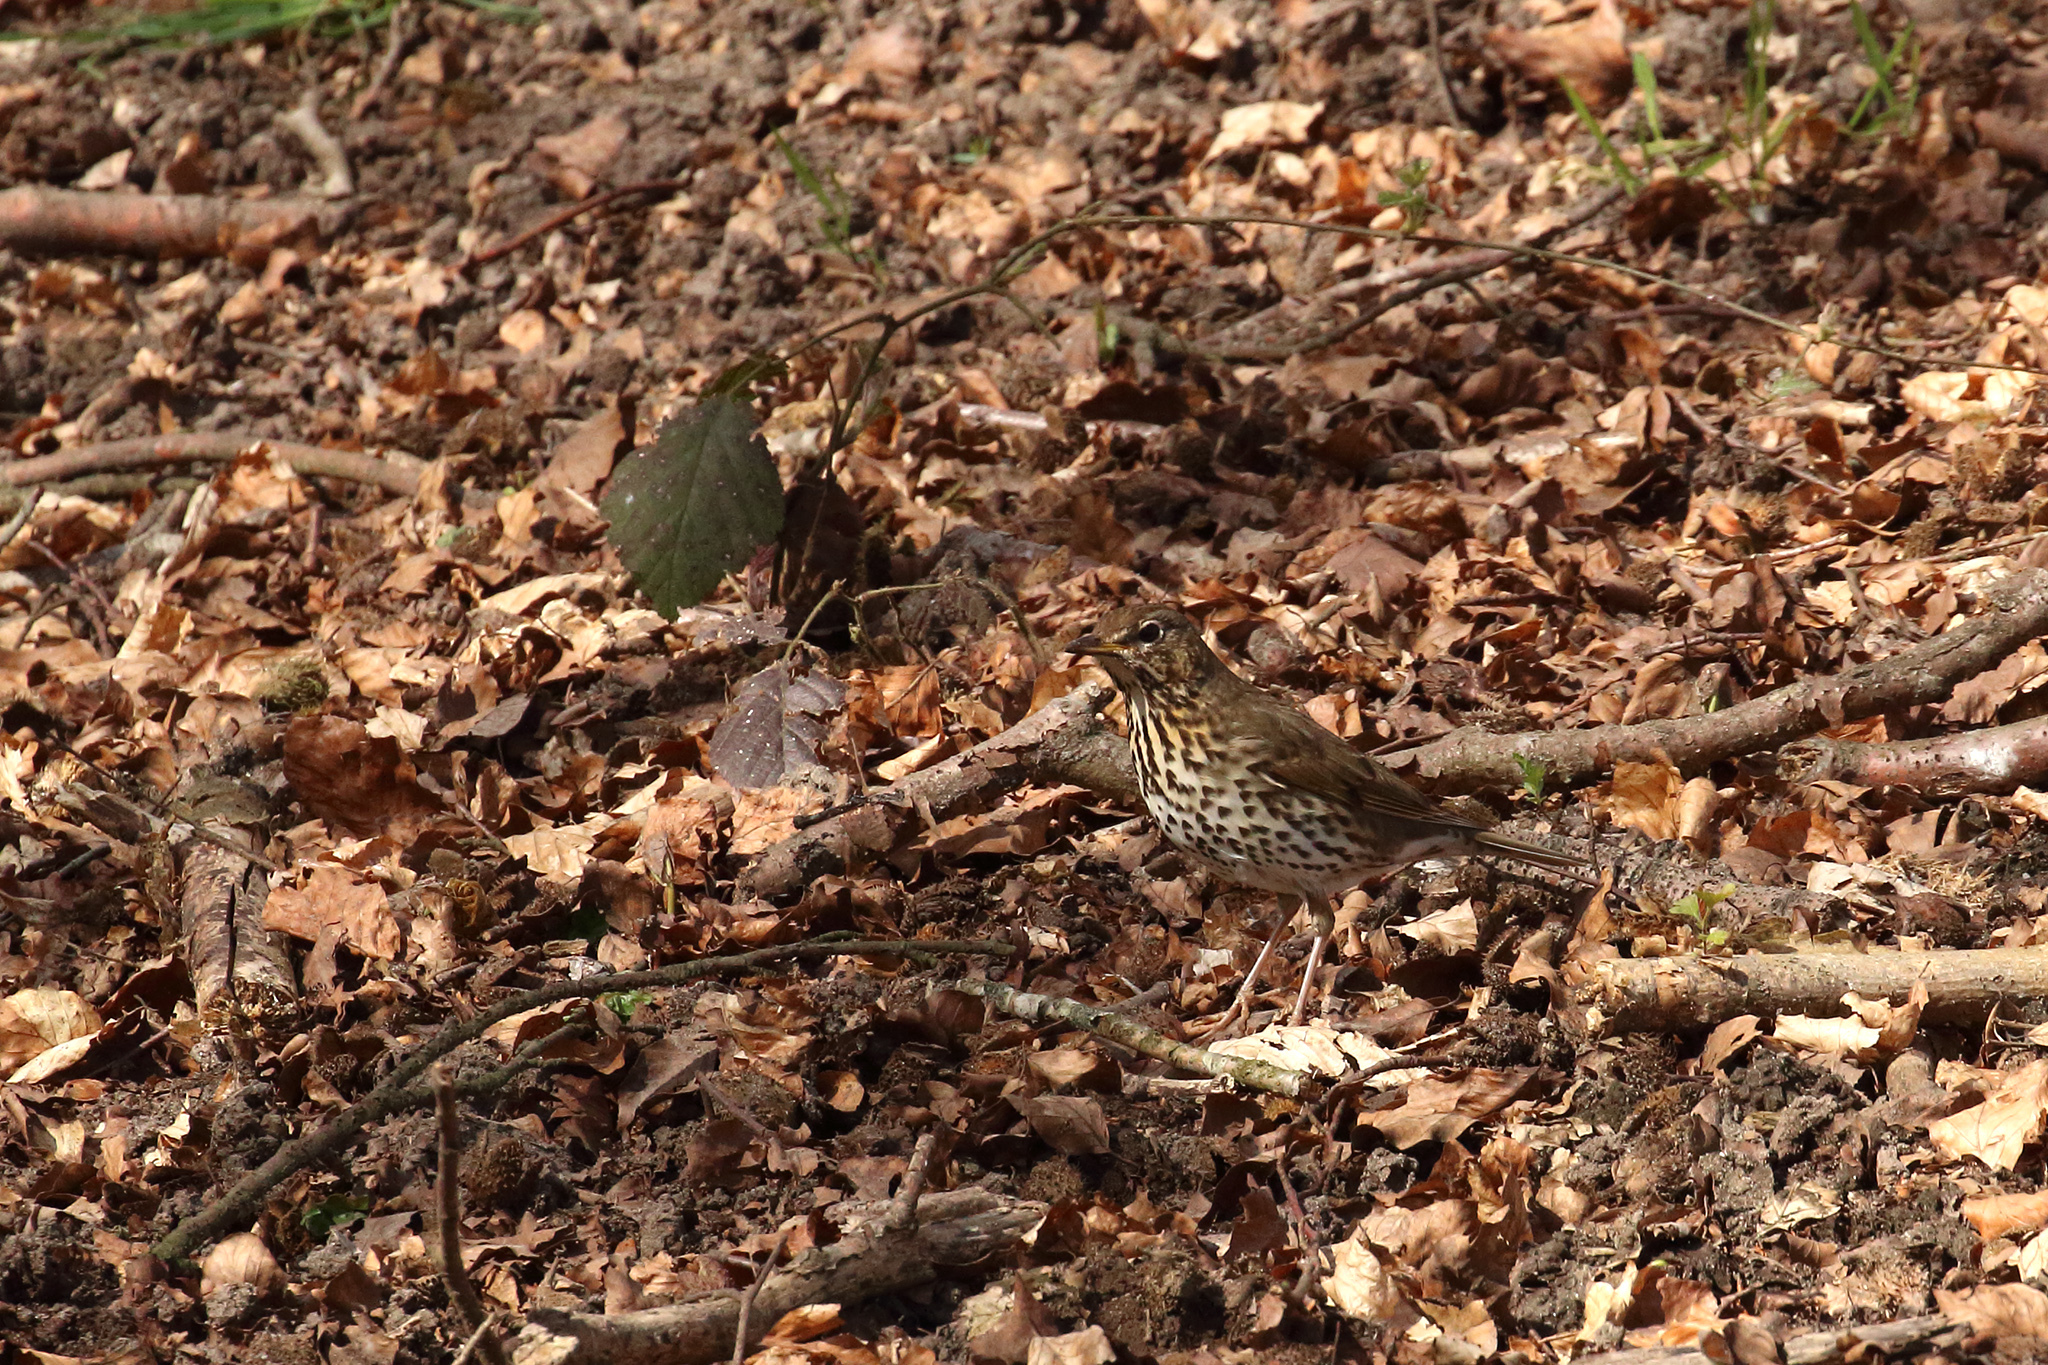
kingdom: Animalia
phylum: Chordata
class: Aves
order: Passeriformes
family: Turdidae
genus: Turdus
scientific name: Turdus philomelos
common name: Song thrush
